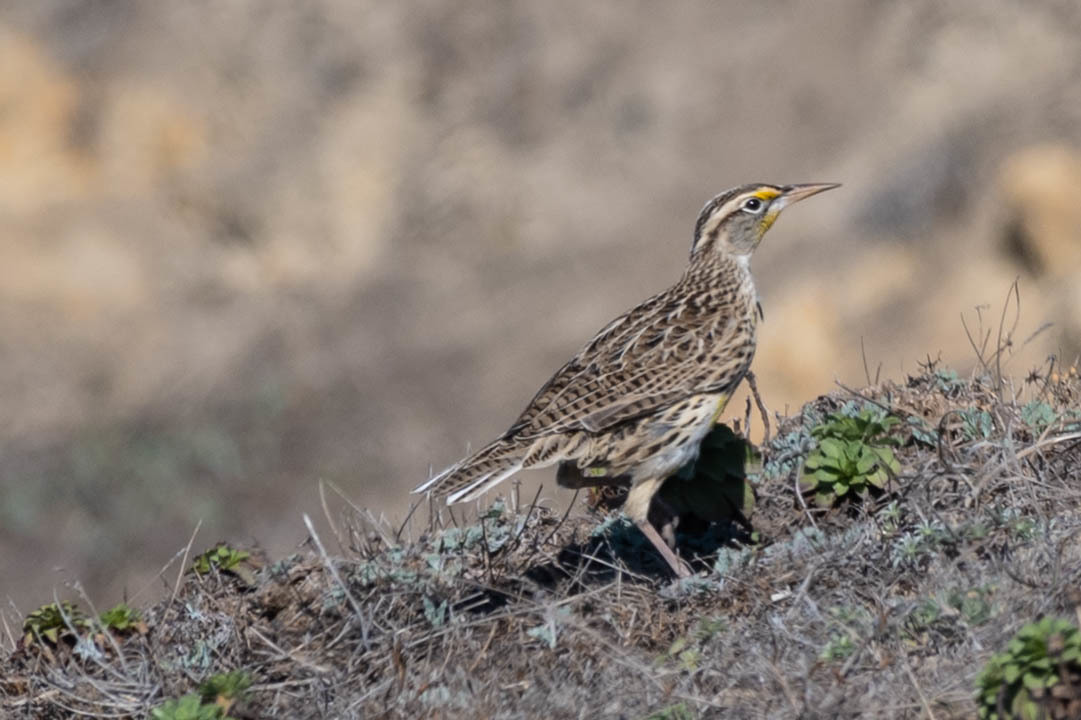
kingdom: Animalia
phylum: Chordata
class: Aves
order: Passeriformes
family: Icteridae
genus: Sturnella
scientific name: Sturnella neglecta
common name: Western meadowlark
